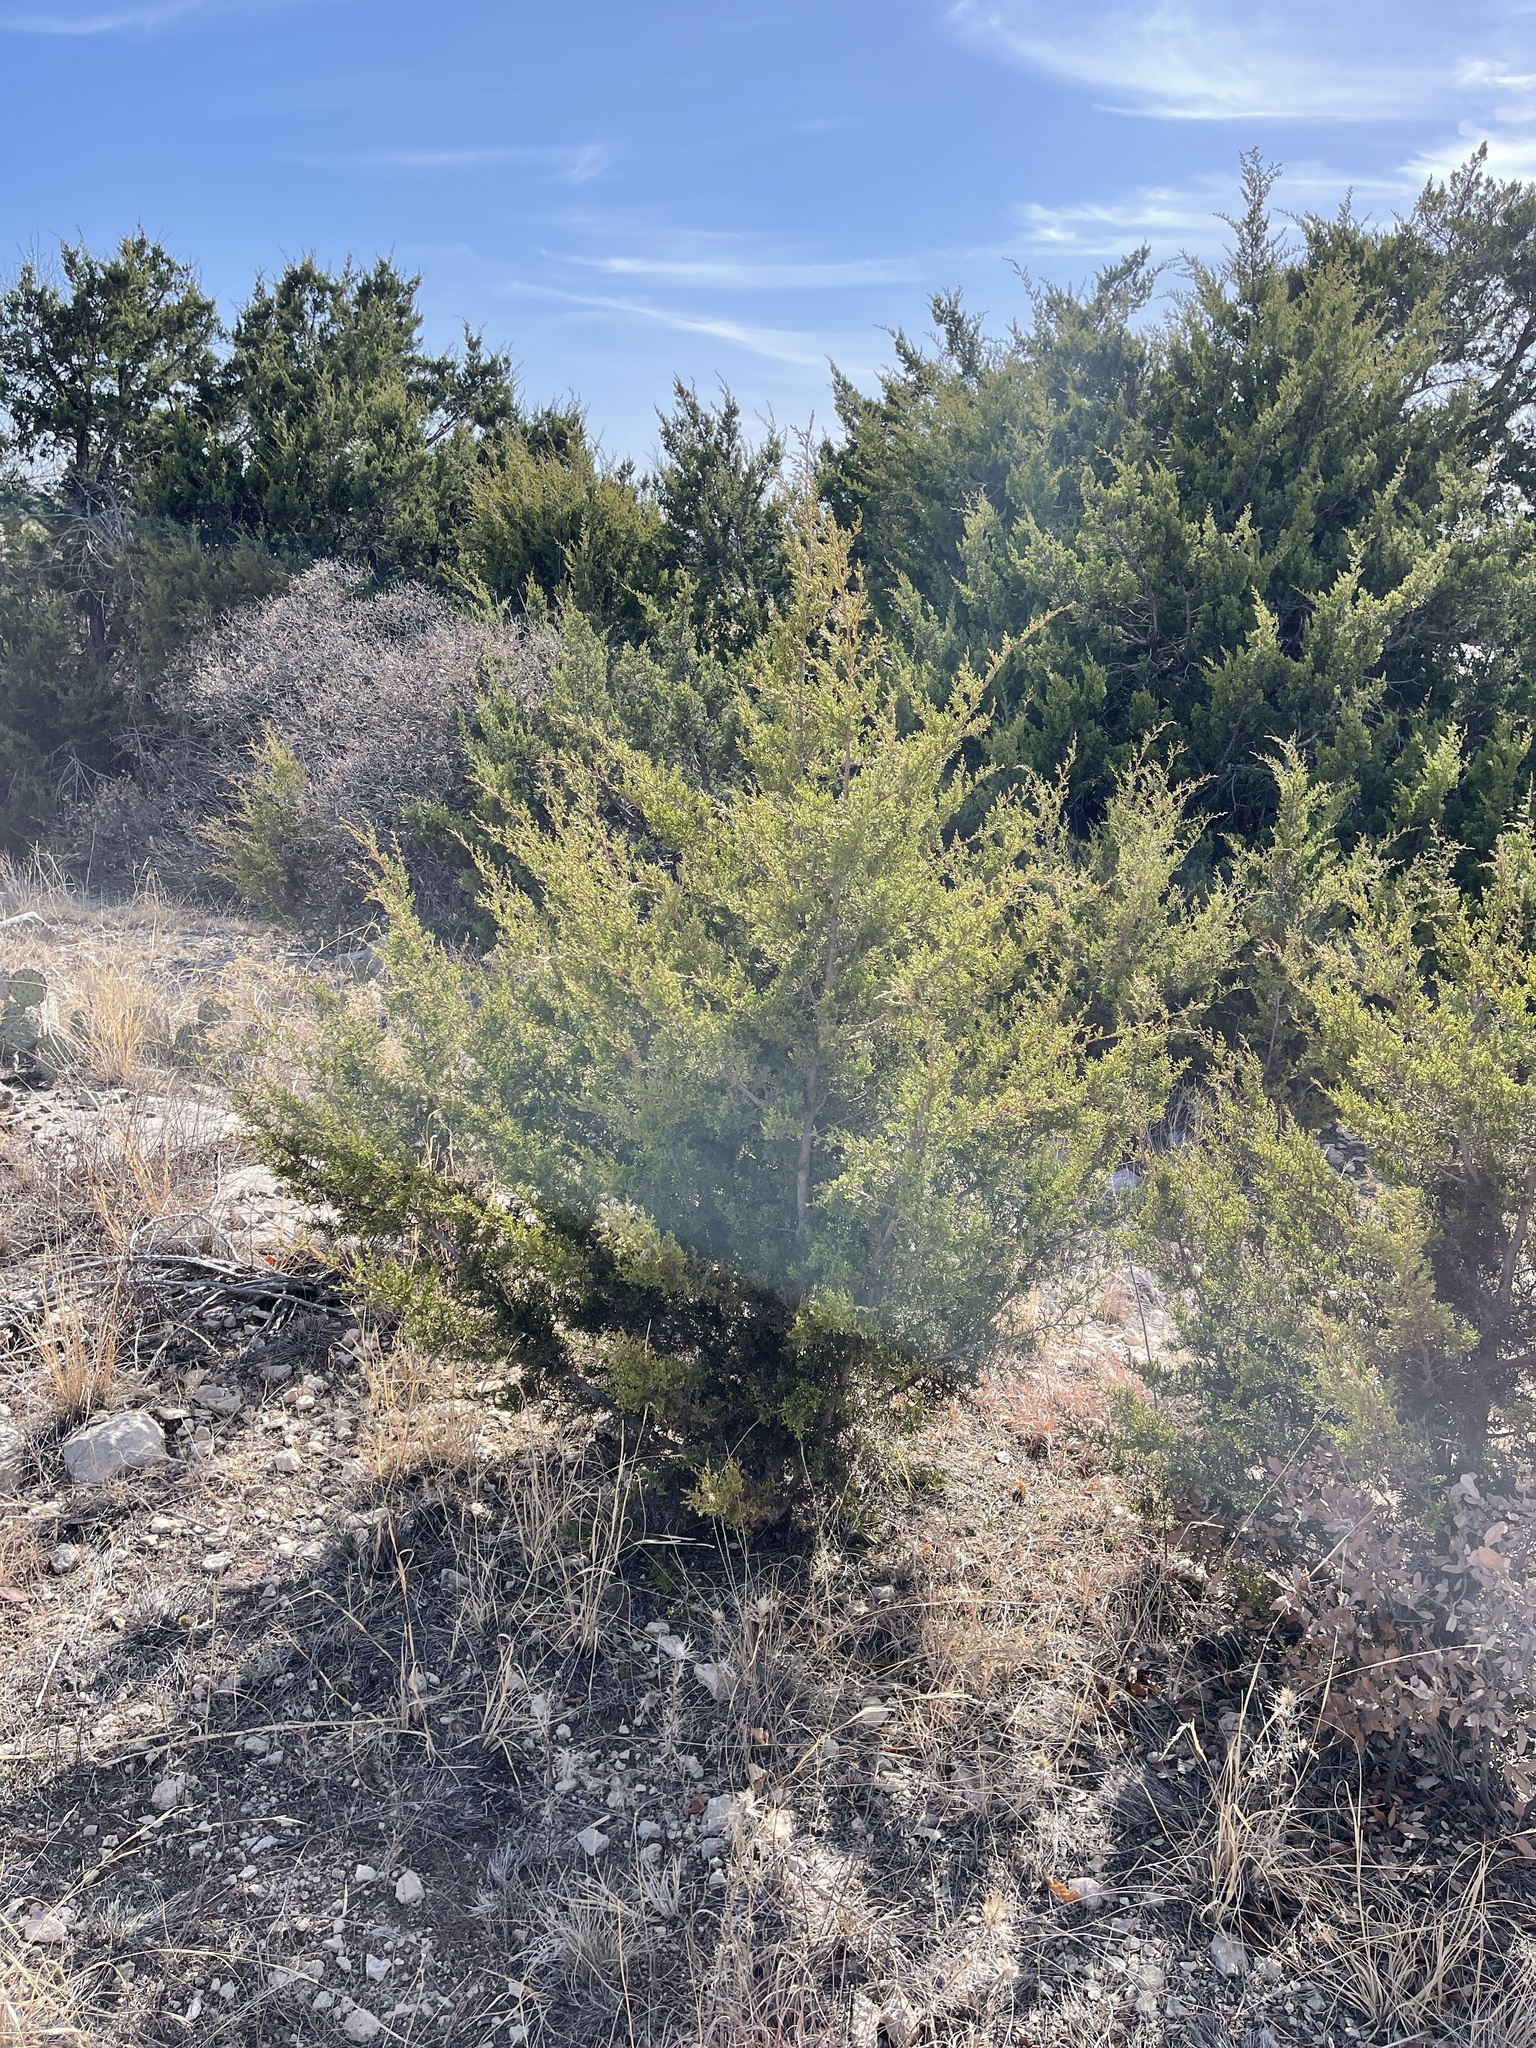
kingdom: Plantae
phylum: Tracheophyta
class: Pinopsida
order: Pinales
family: Cupressaceae
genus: Juniperus
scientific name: Juniperus ashei
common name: Mexican juniper
